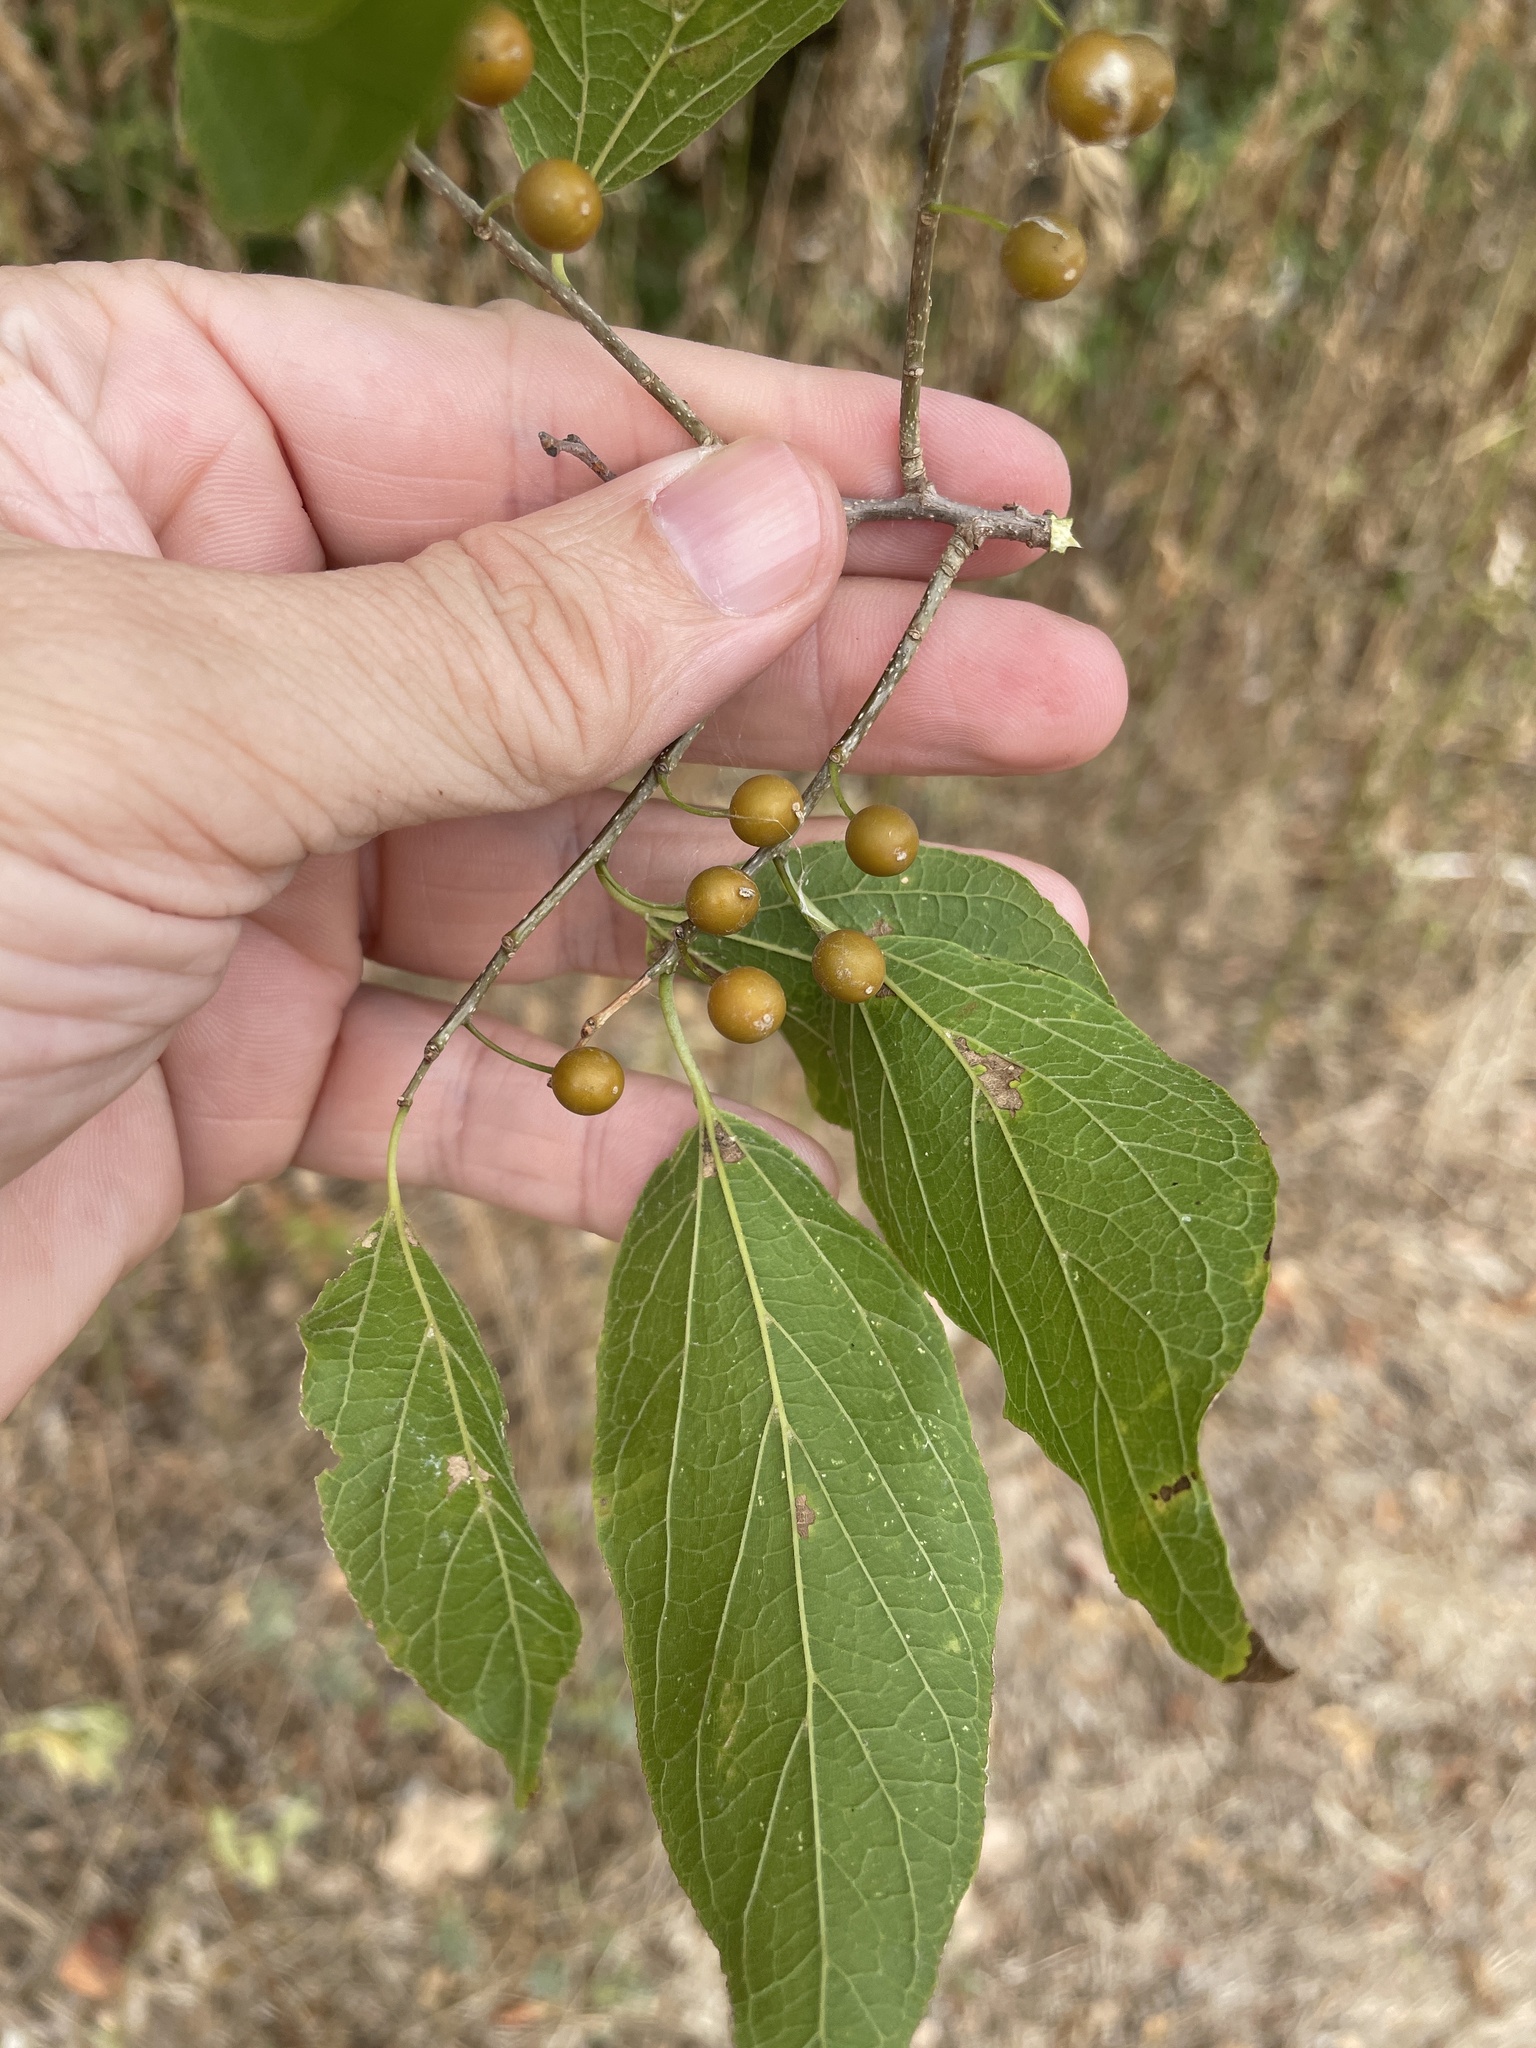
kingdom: Plantae
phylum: Tracheophyta
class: Magnoliopsida
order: Rosales
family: Cannabaceae
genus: Celtis
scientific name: Celtis laevigata
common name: Sugarberry
